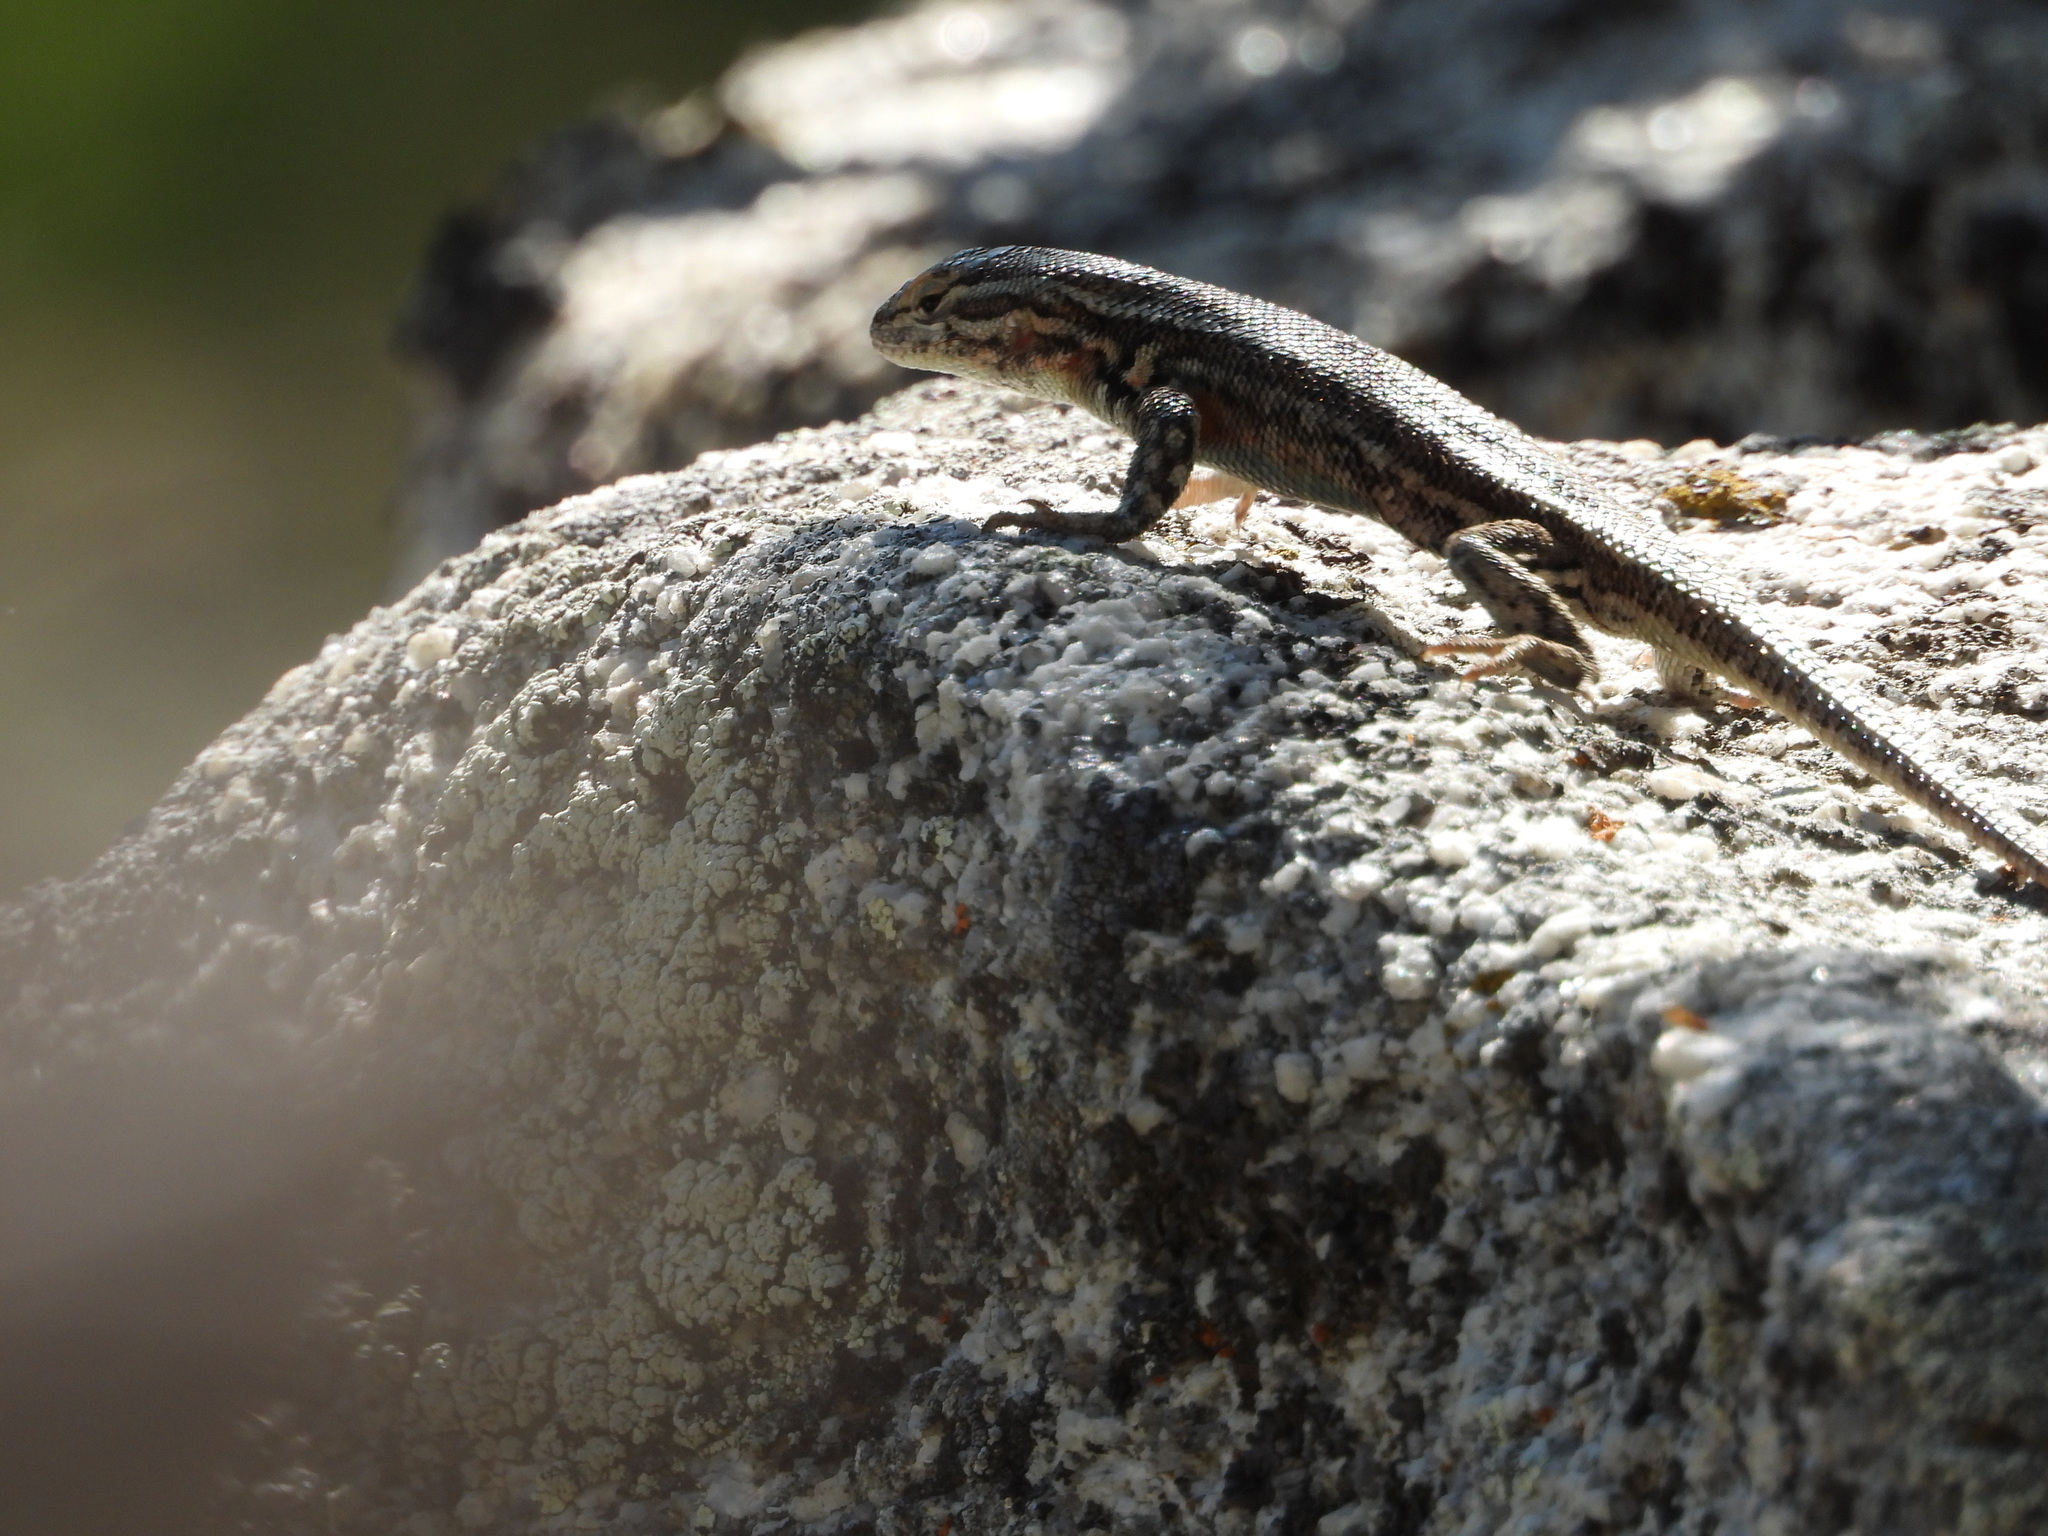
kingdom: Animalia
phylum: Chordata
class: Squamata
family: Phrynosomatidae
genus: Sceloporus
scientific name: Sceloporus graciosus
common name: Sagebrush lizard
